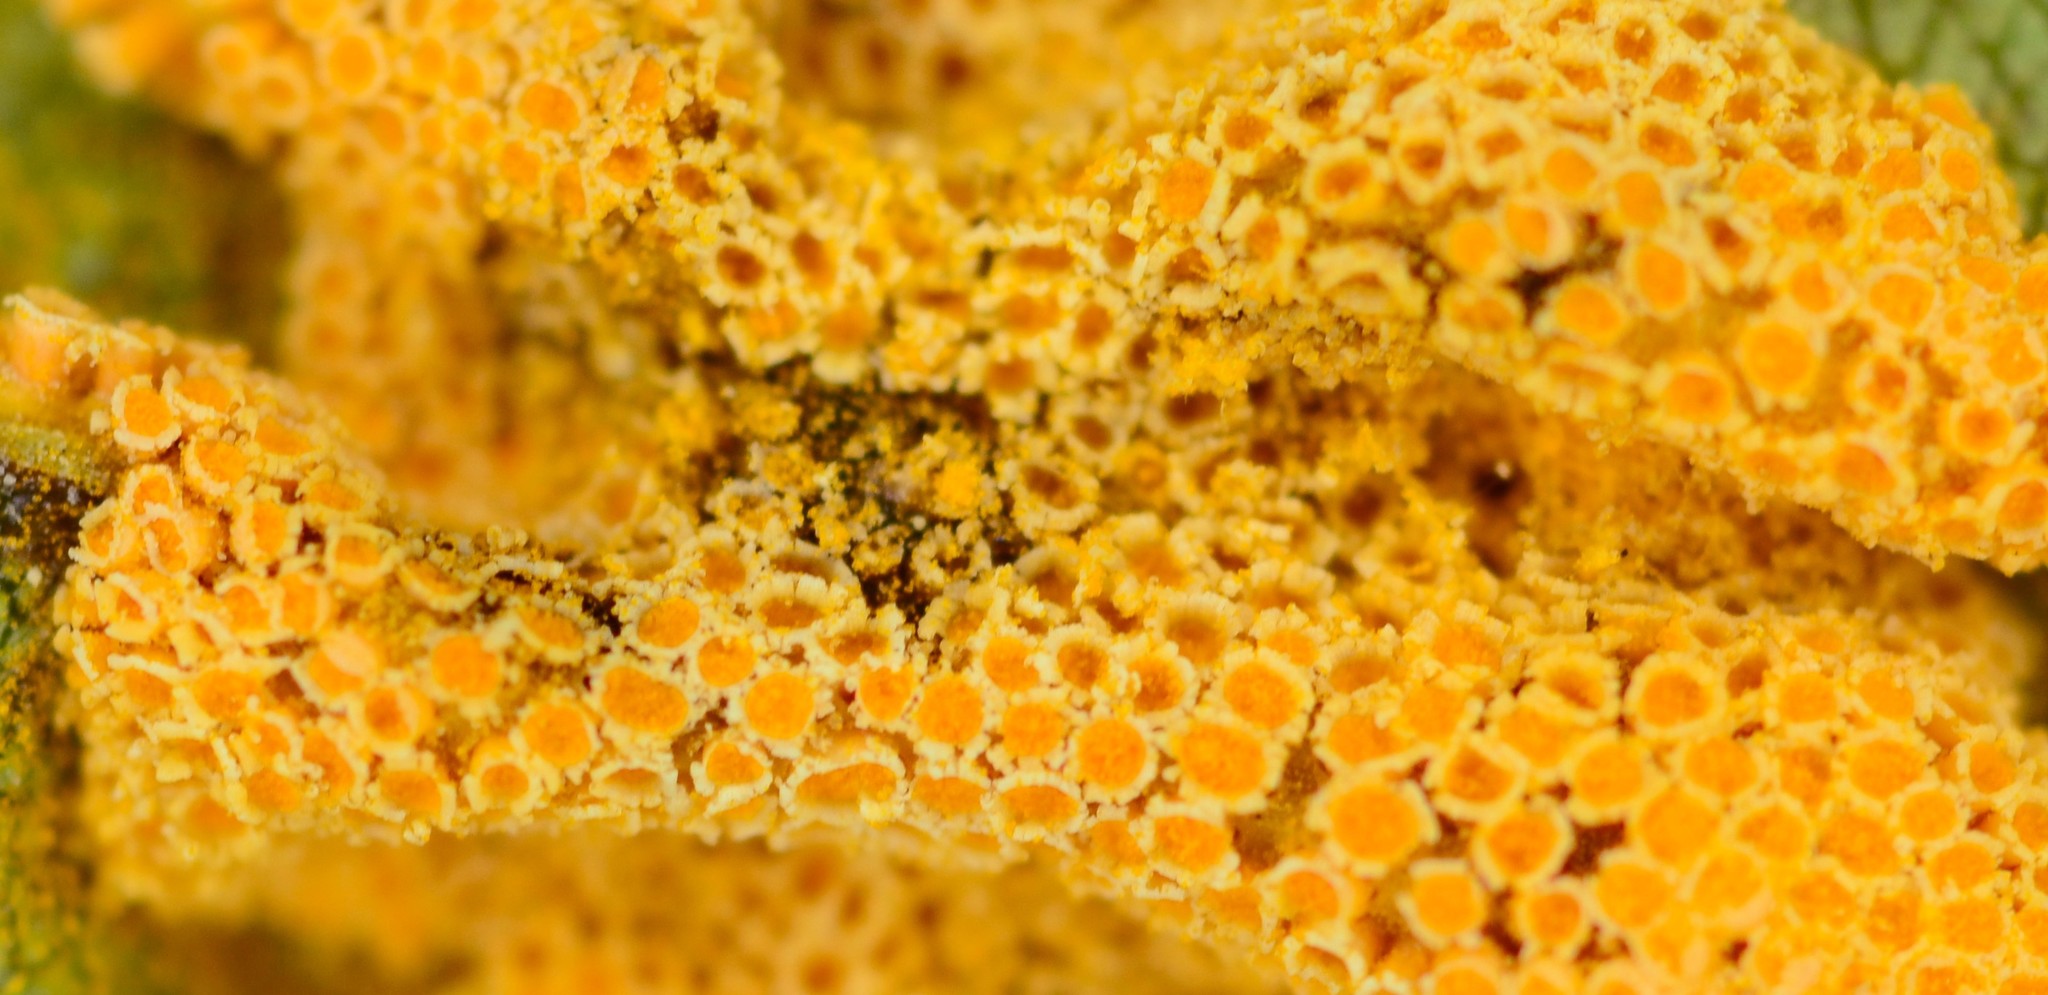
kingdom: Fungi
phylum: Basidiomycota
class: Pucciniomycetes
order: Pucciniales
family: Pucciniaceae
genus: Puccinia
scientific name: Puccinia coronata
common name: Crown rust
